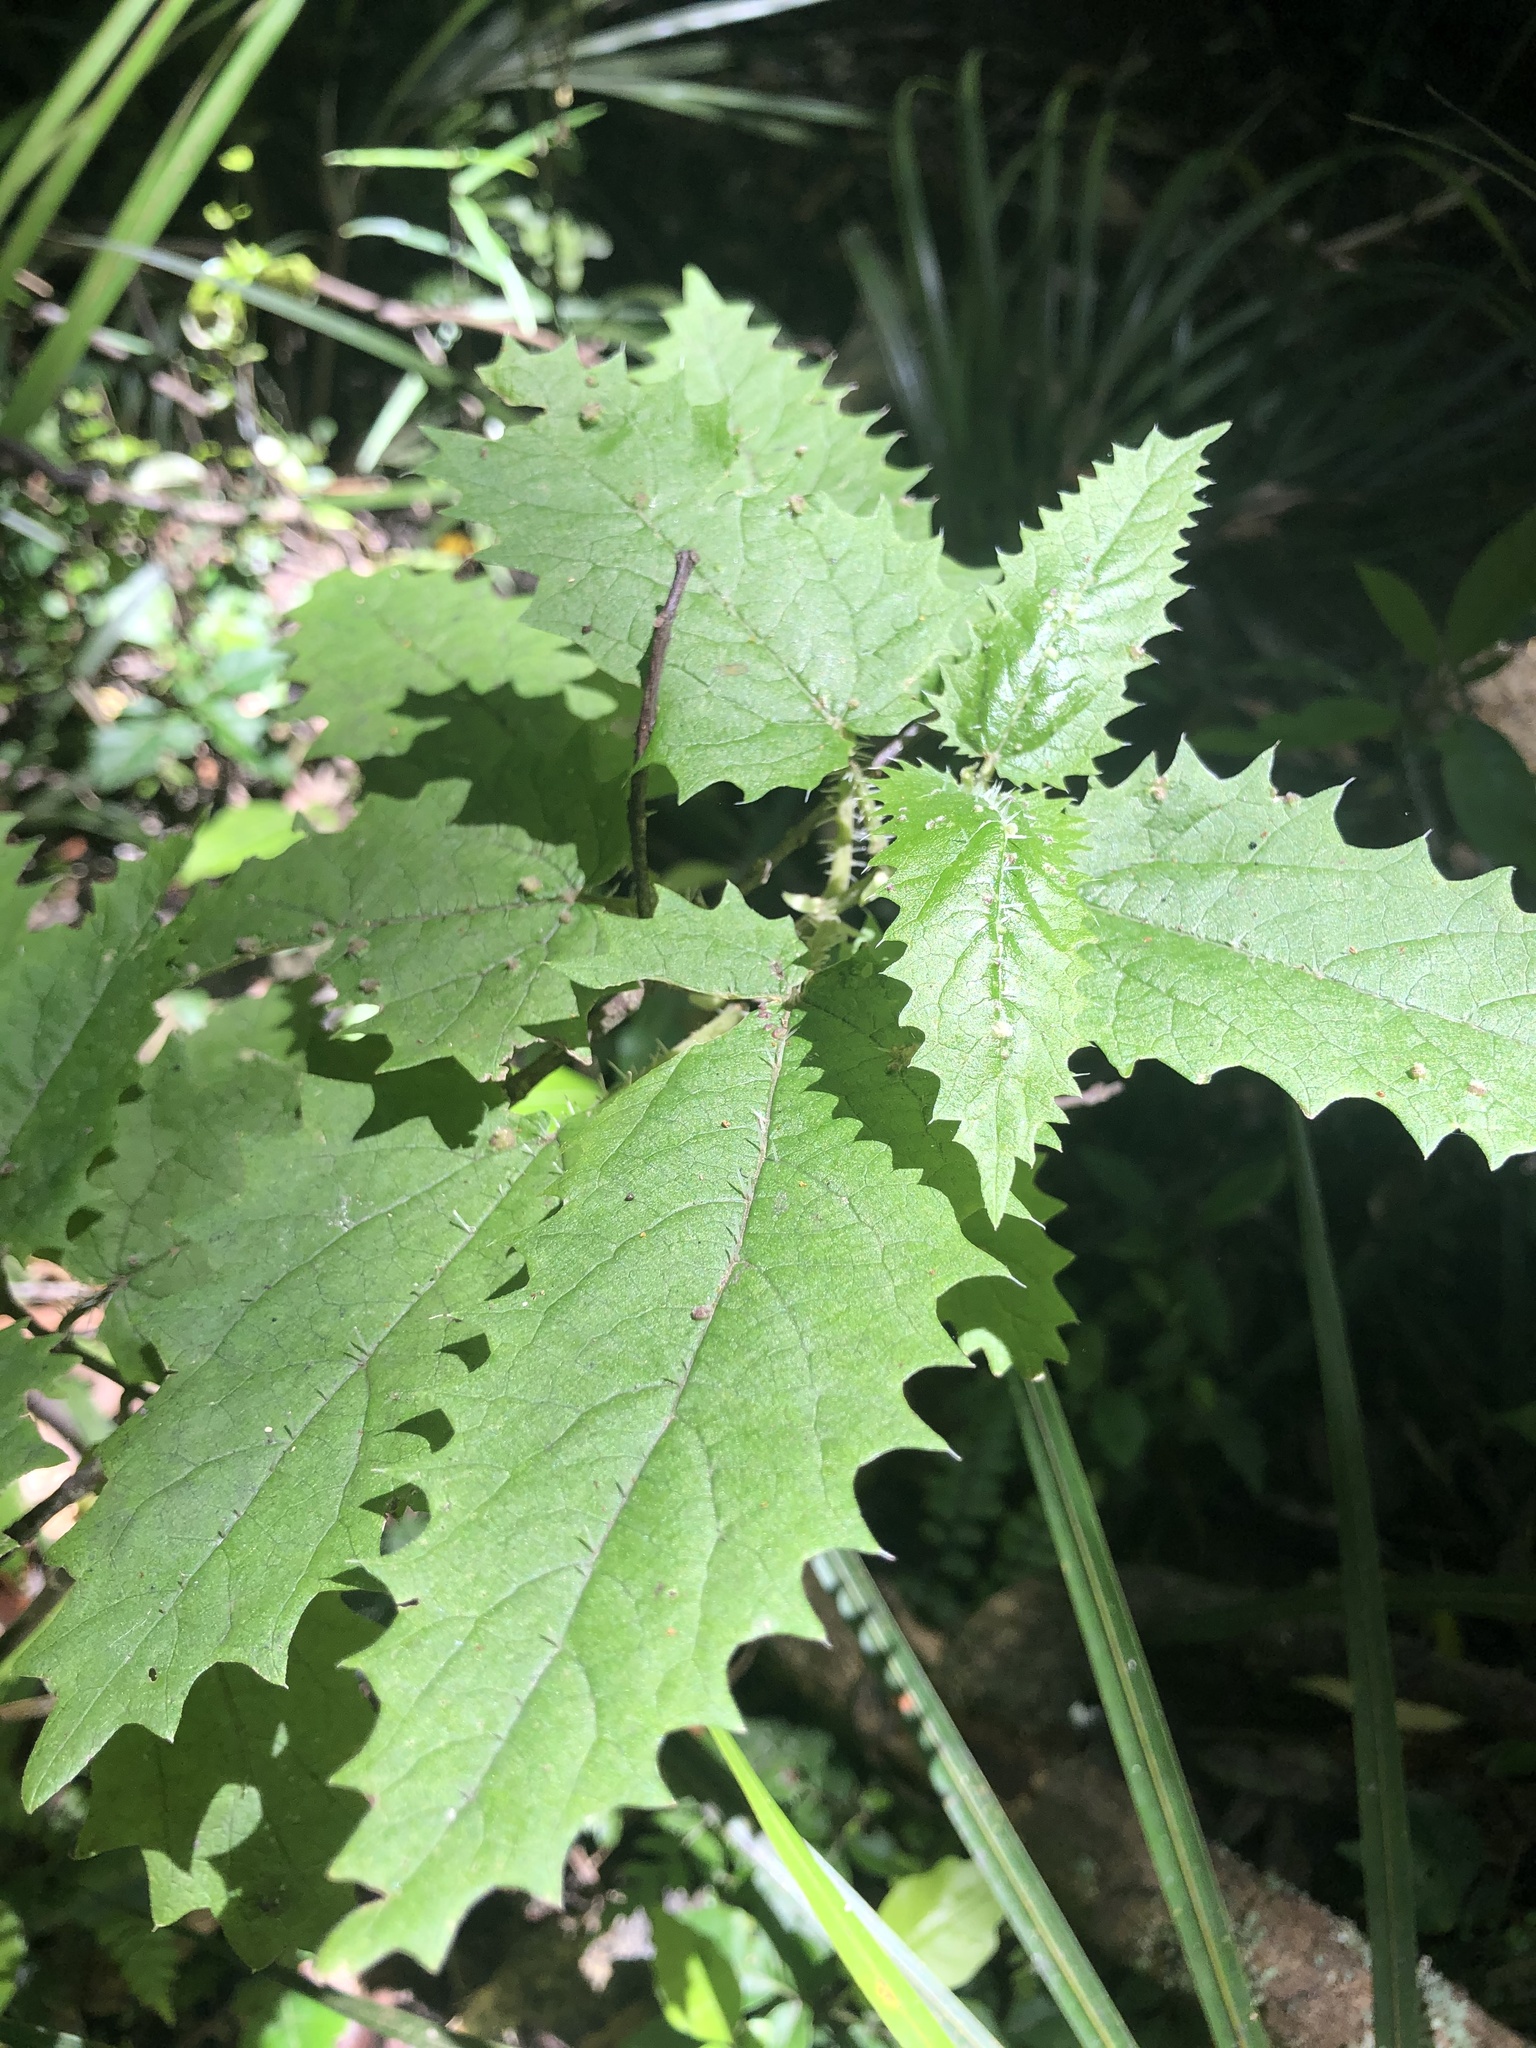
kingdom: Plantae
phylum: Tracheophyta
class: Magnoliopsida
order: Rosales
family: Urticaceae
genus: Urtica
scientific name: Urtica ferox
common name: Tree nettle
